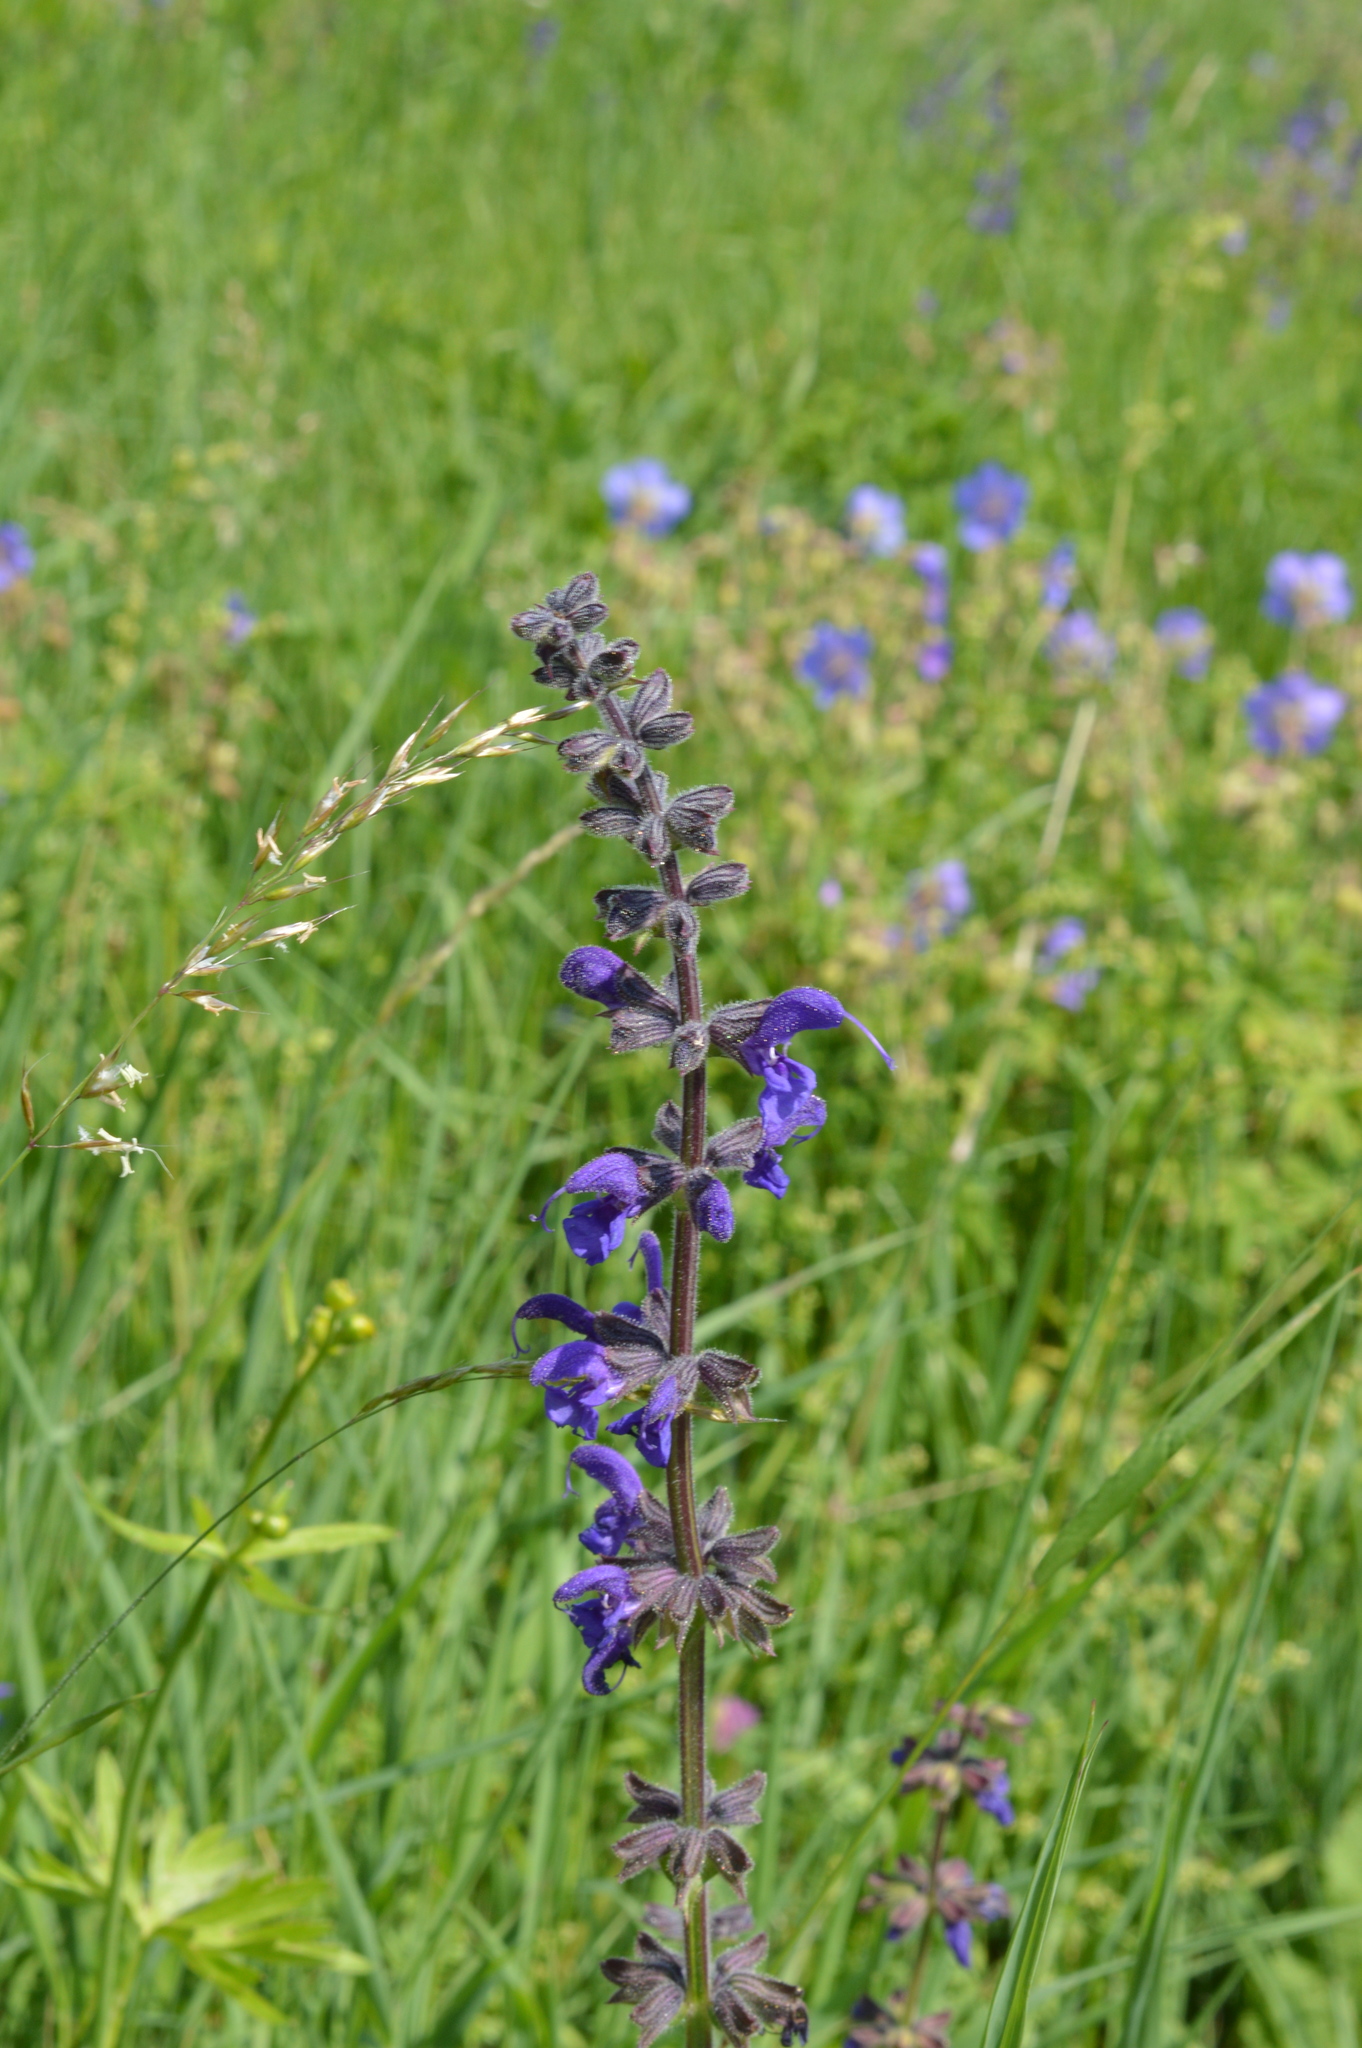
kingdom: Plantae
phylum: Tracheophyta
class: Magnoliopsida
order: Lamiales
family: Lamiaceae
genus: Salvia
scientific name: Salvia pratensis
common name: Meadow sage
